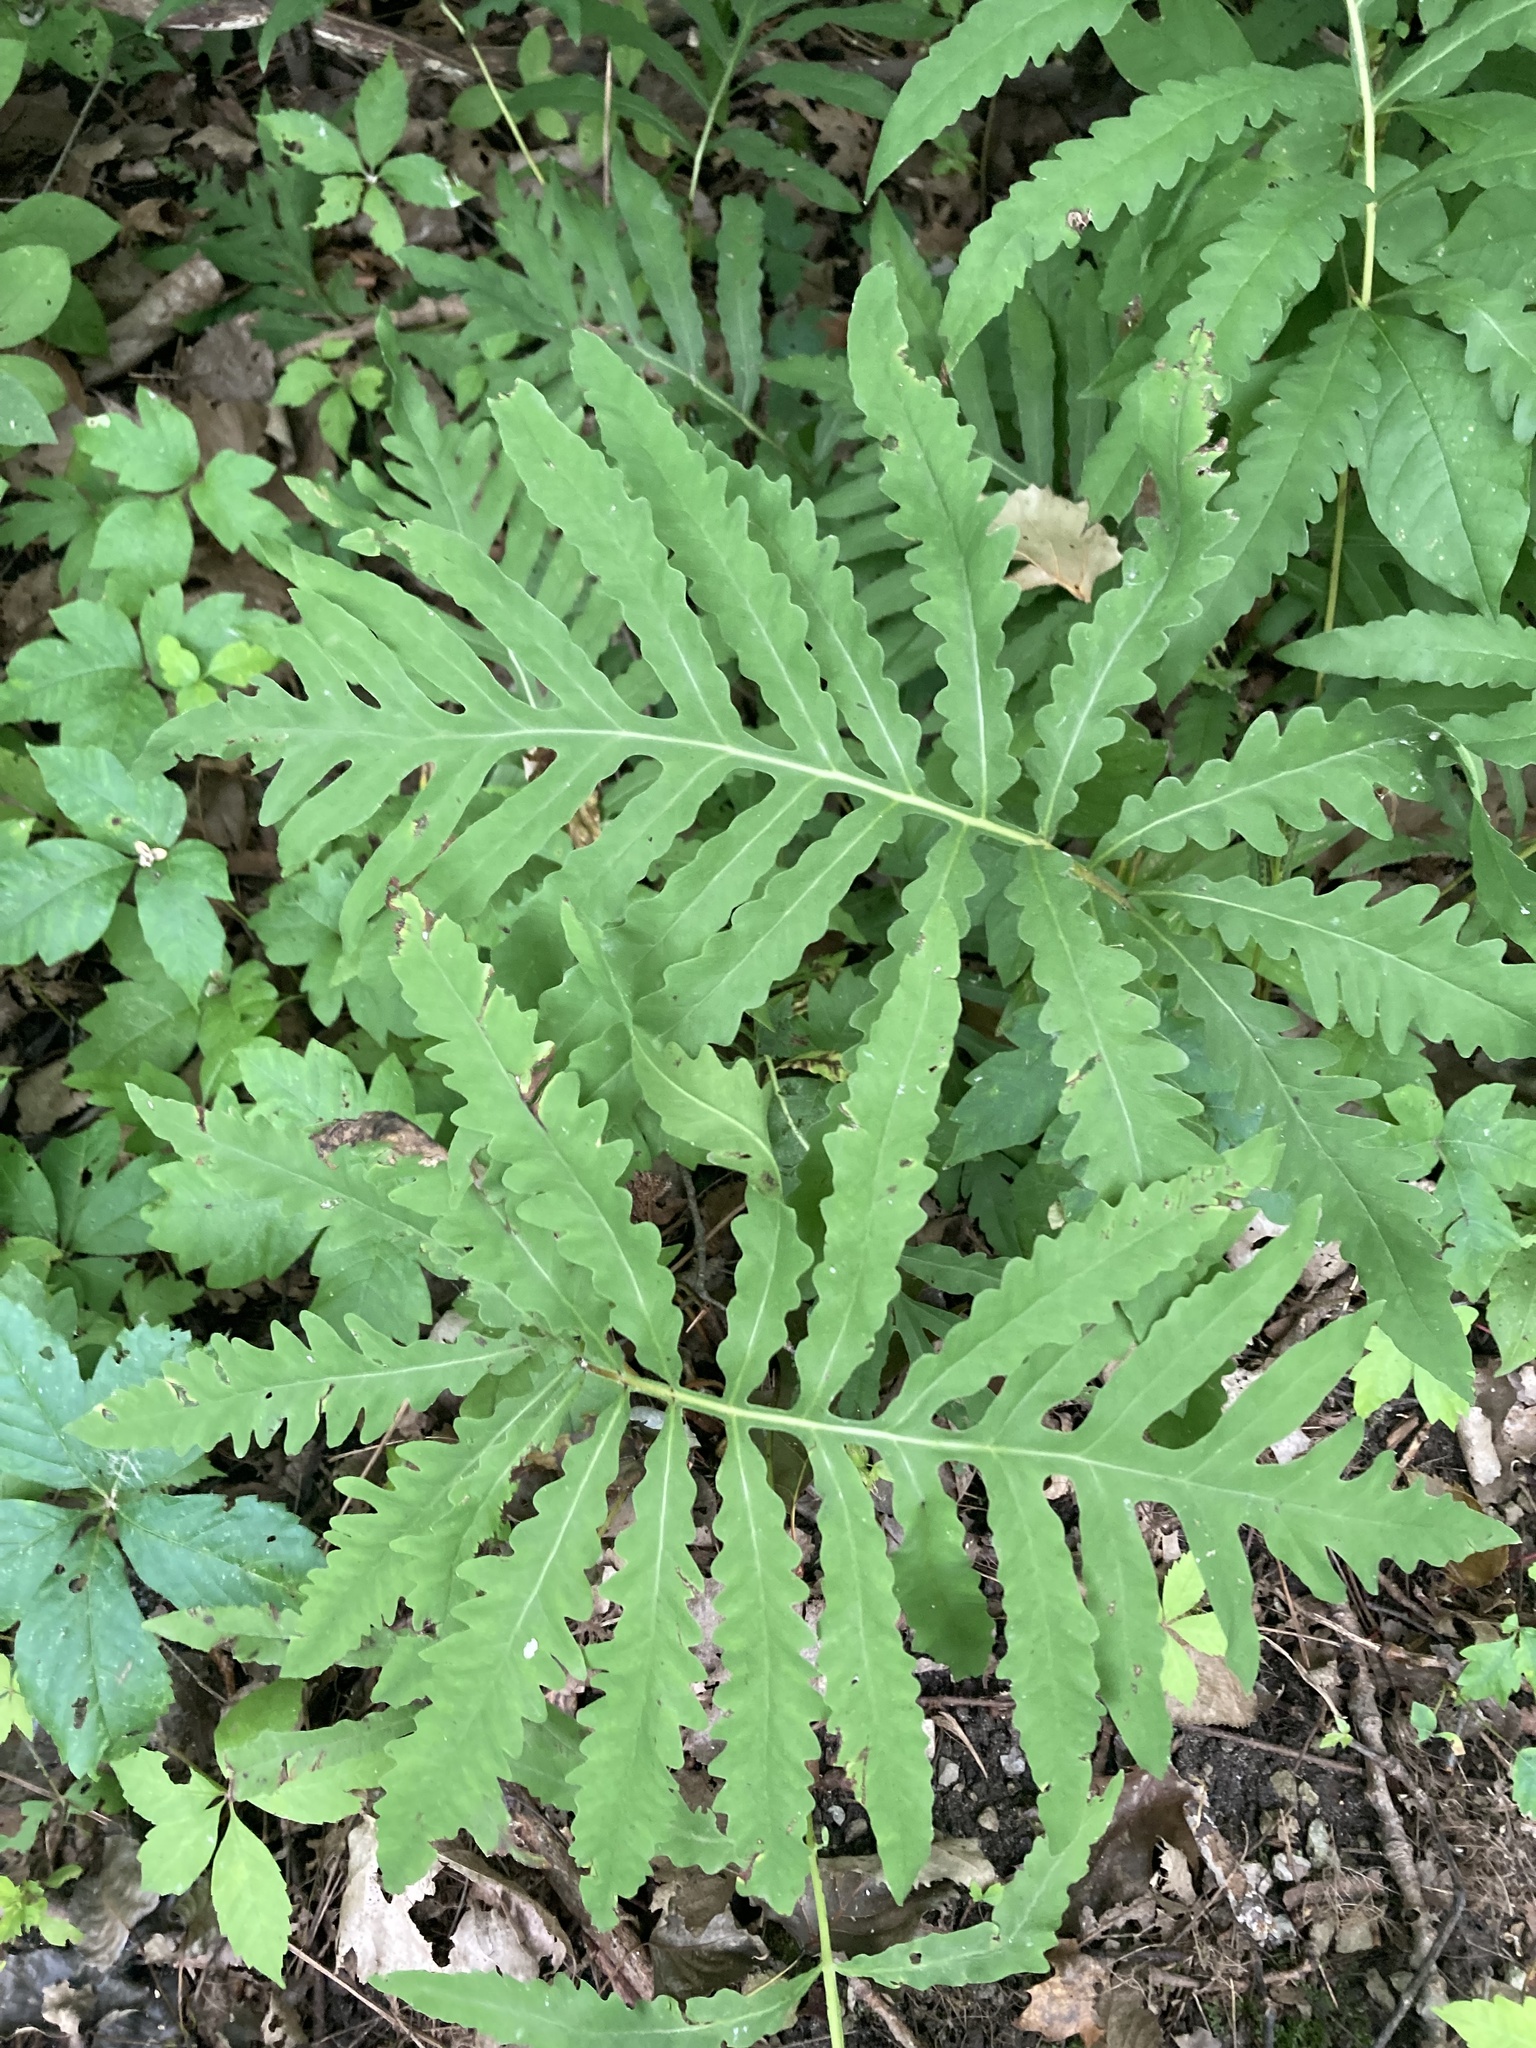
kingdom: Plantae
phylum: Tracheophyta
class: Polypodiopsida
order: Polypodiales
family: Onocleaceae
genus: Onoclea
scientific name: Onoclea sensibilis
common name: Sensitive fern
